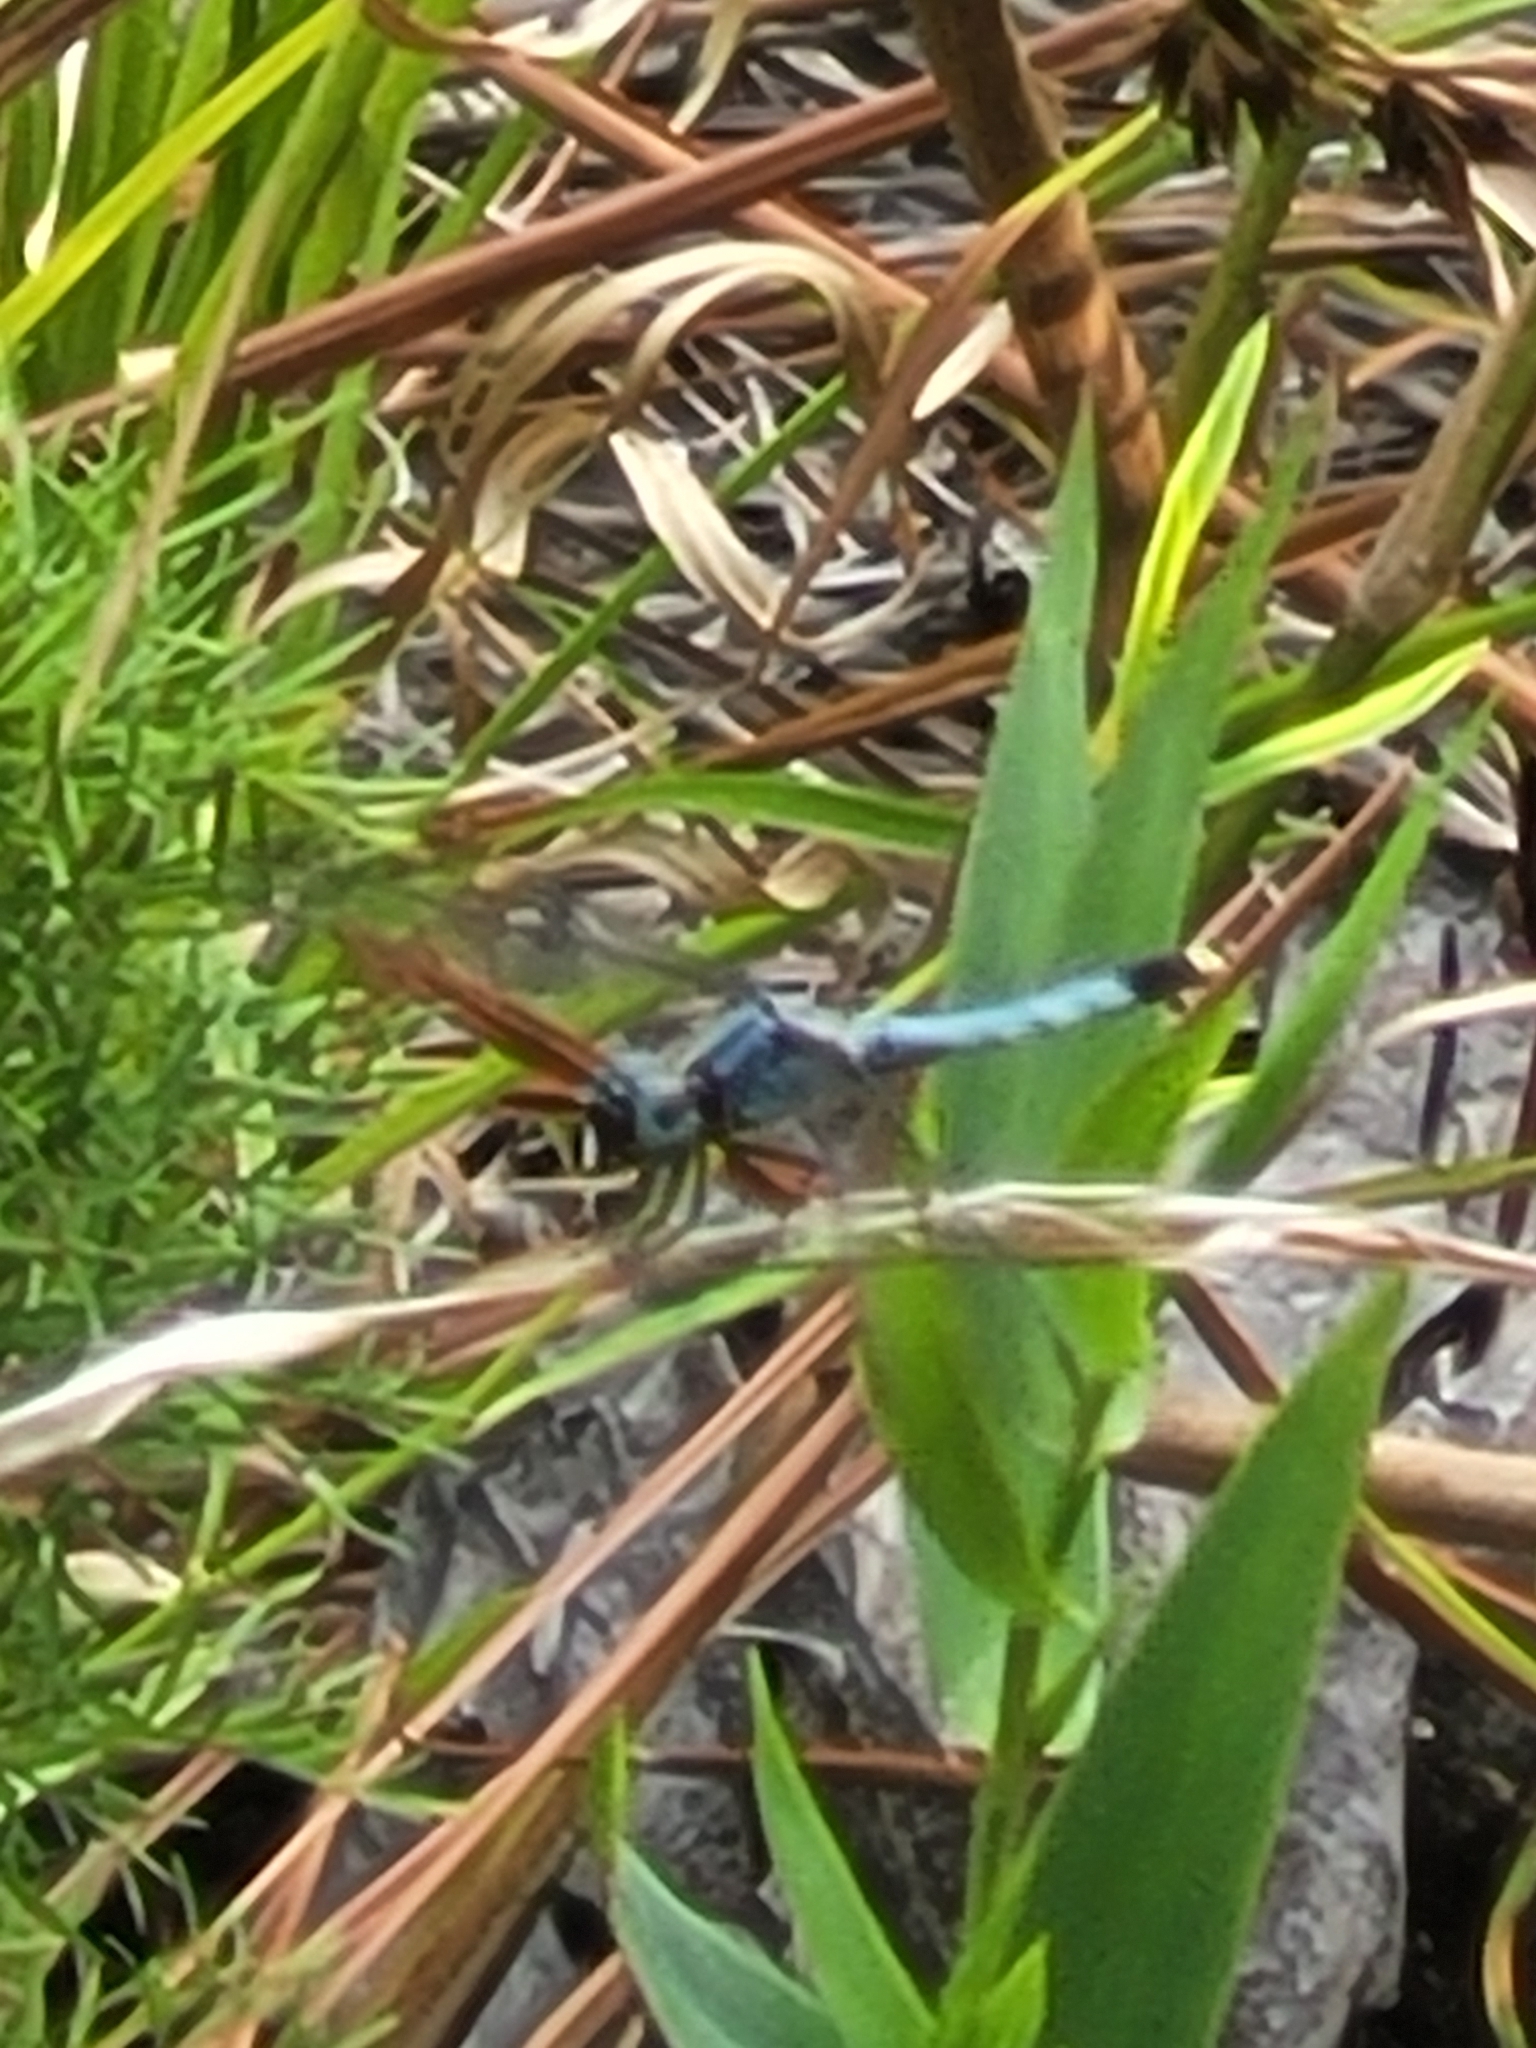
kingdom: Animalia
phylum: Arthropoda
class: Insecta
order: Odonata
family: Libellulidae
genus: Erythrodiplax
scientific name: Erythrodiplax minuscula
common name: Little blue dragonlet
